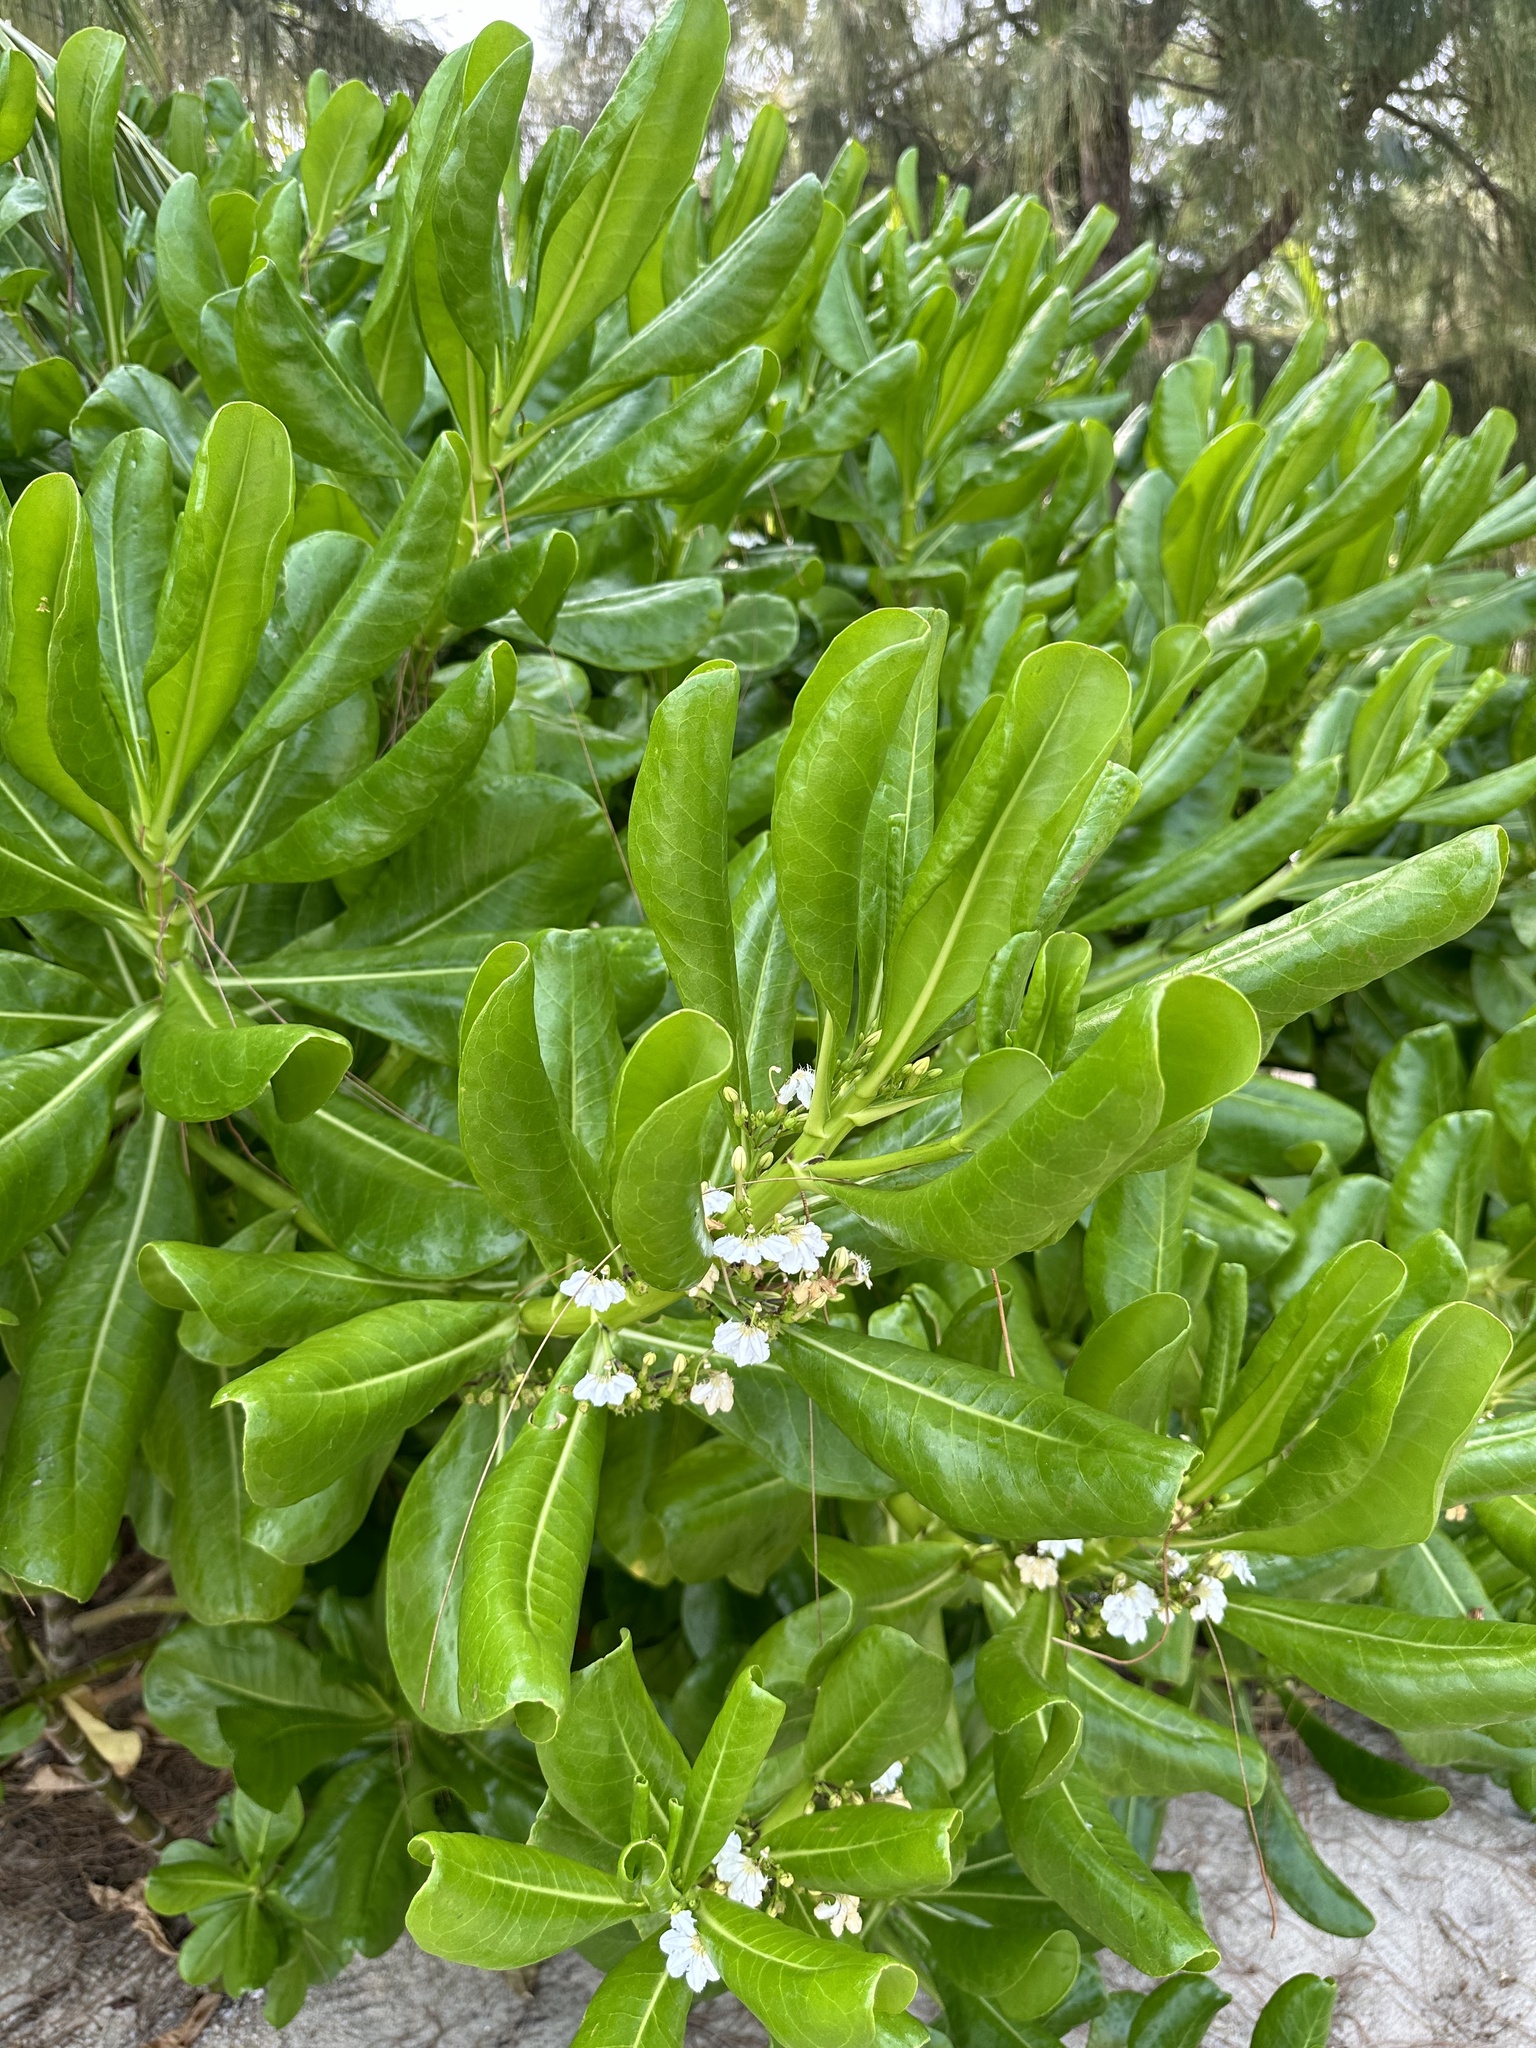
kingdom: Plantae
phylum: Tracheophyta
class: Magnoliopsida
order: Asterales
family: Goodeniaceae
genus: Scaevola
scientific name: Scaevola taccada
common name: Sea lettucetree
